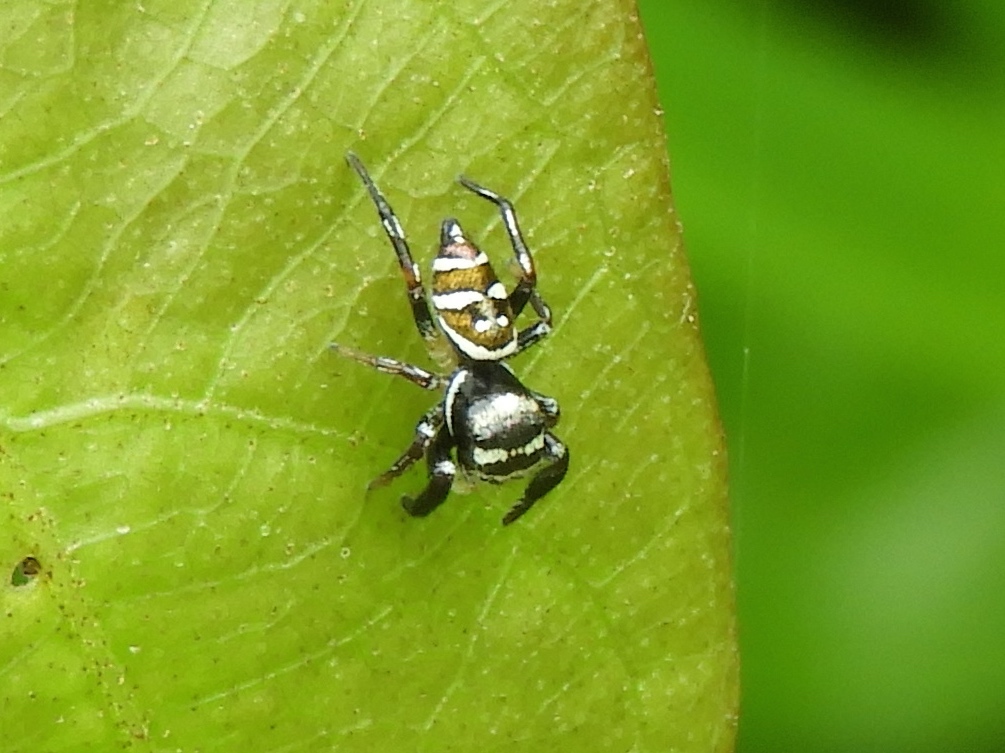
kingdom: Animalia
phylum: Arthropoda
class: Arachnida
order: Araneae
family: Salticidae
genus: Sassacus
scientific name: Sassacus
